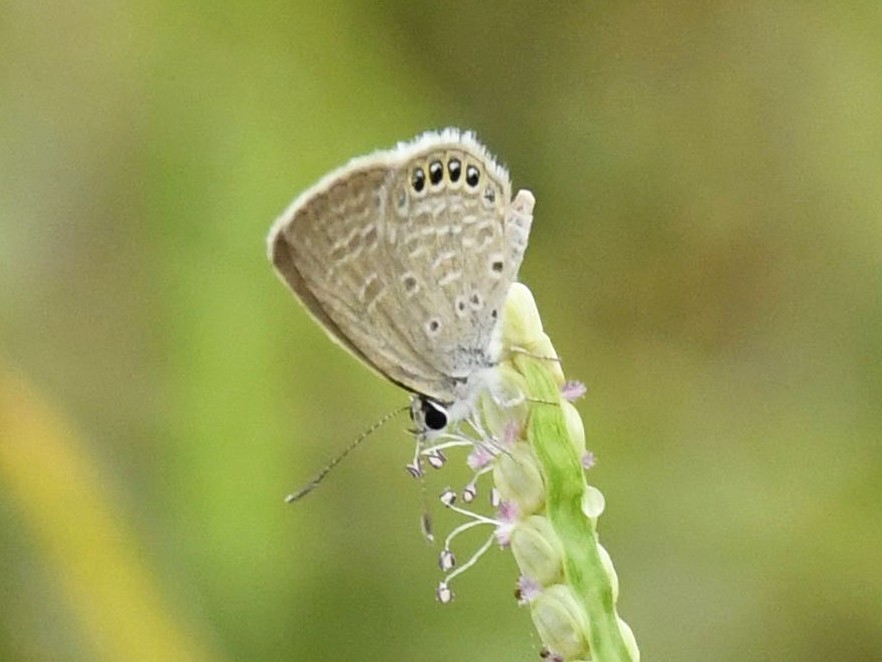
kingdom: Animalia
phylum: Arthropoda
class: Insecta
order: Lepidoptera
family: Lycaenidae
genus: Freyeria
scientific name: Freyeria putli
